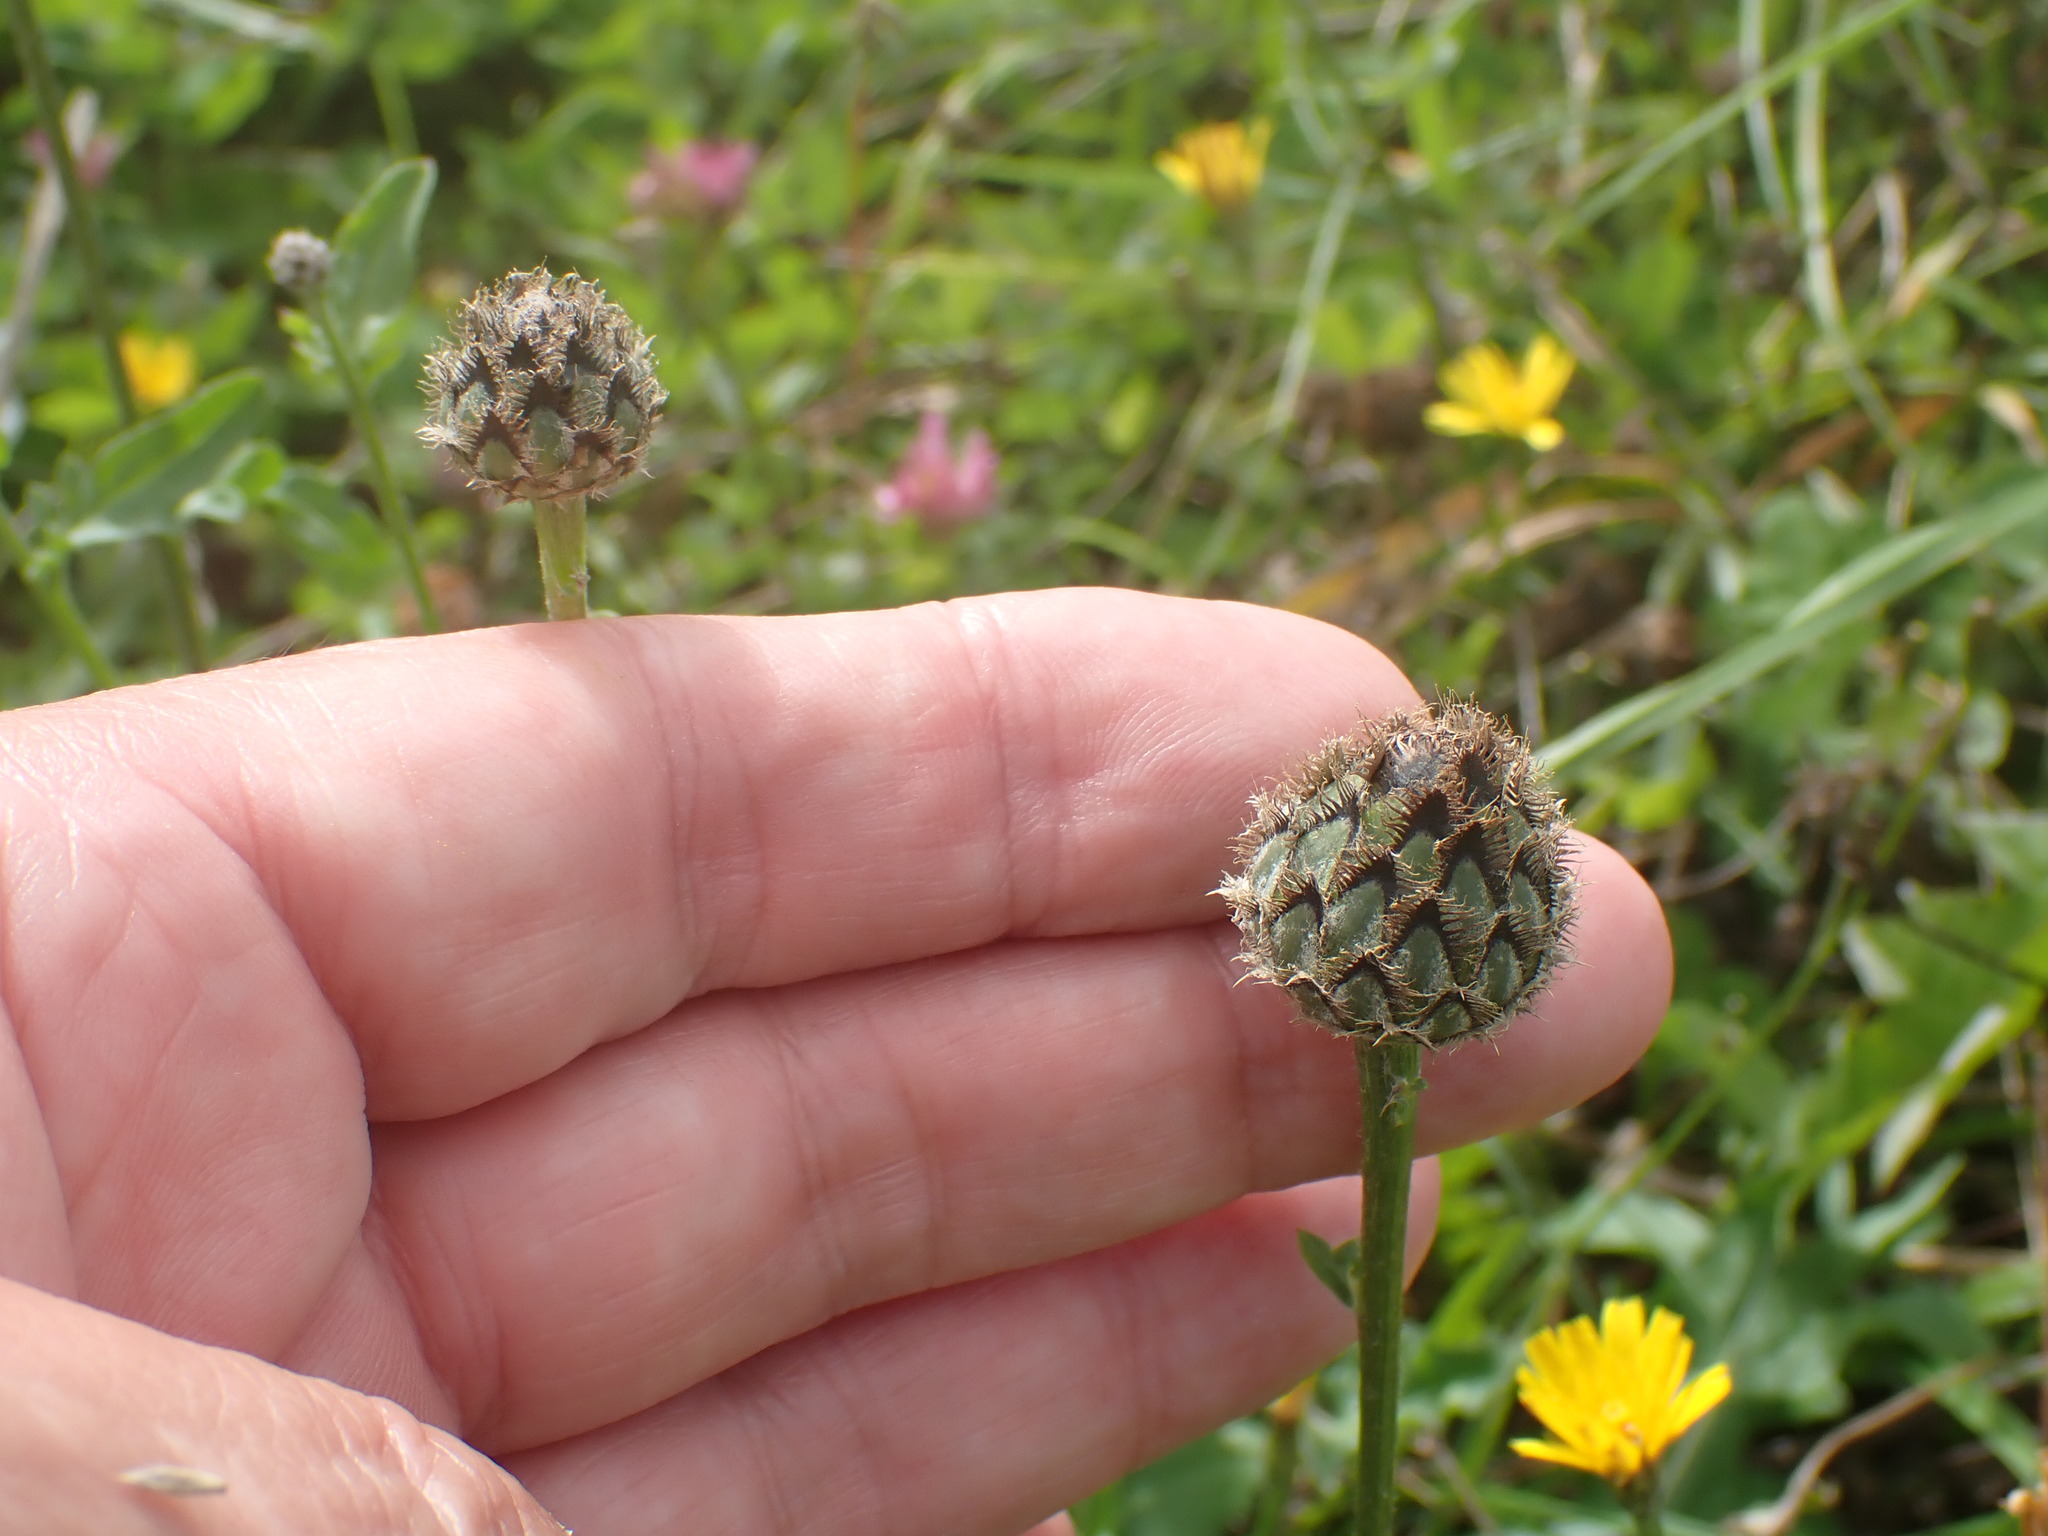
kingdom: Plantae
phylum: Tracheophyta
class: Magnoliopsida
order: Asterales
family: Asteraceae
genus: Centaurea
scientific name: Centaurea scabiosa
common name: Greater knapweed
